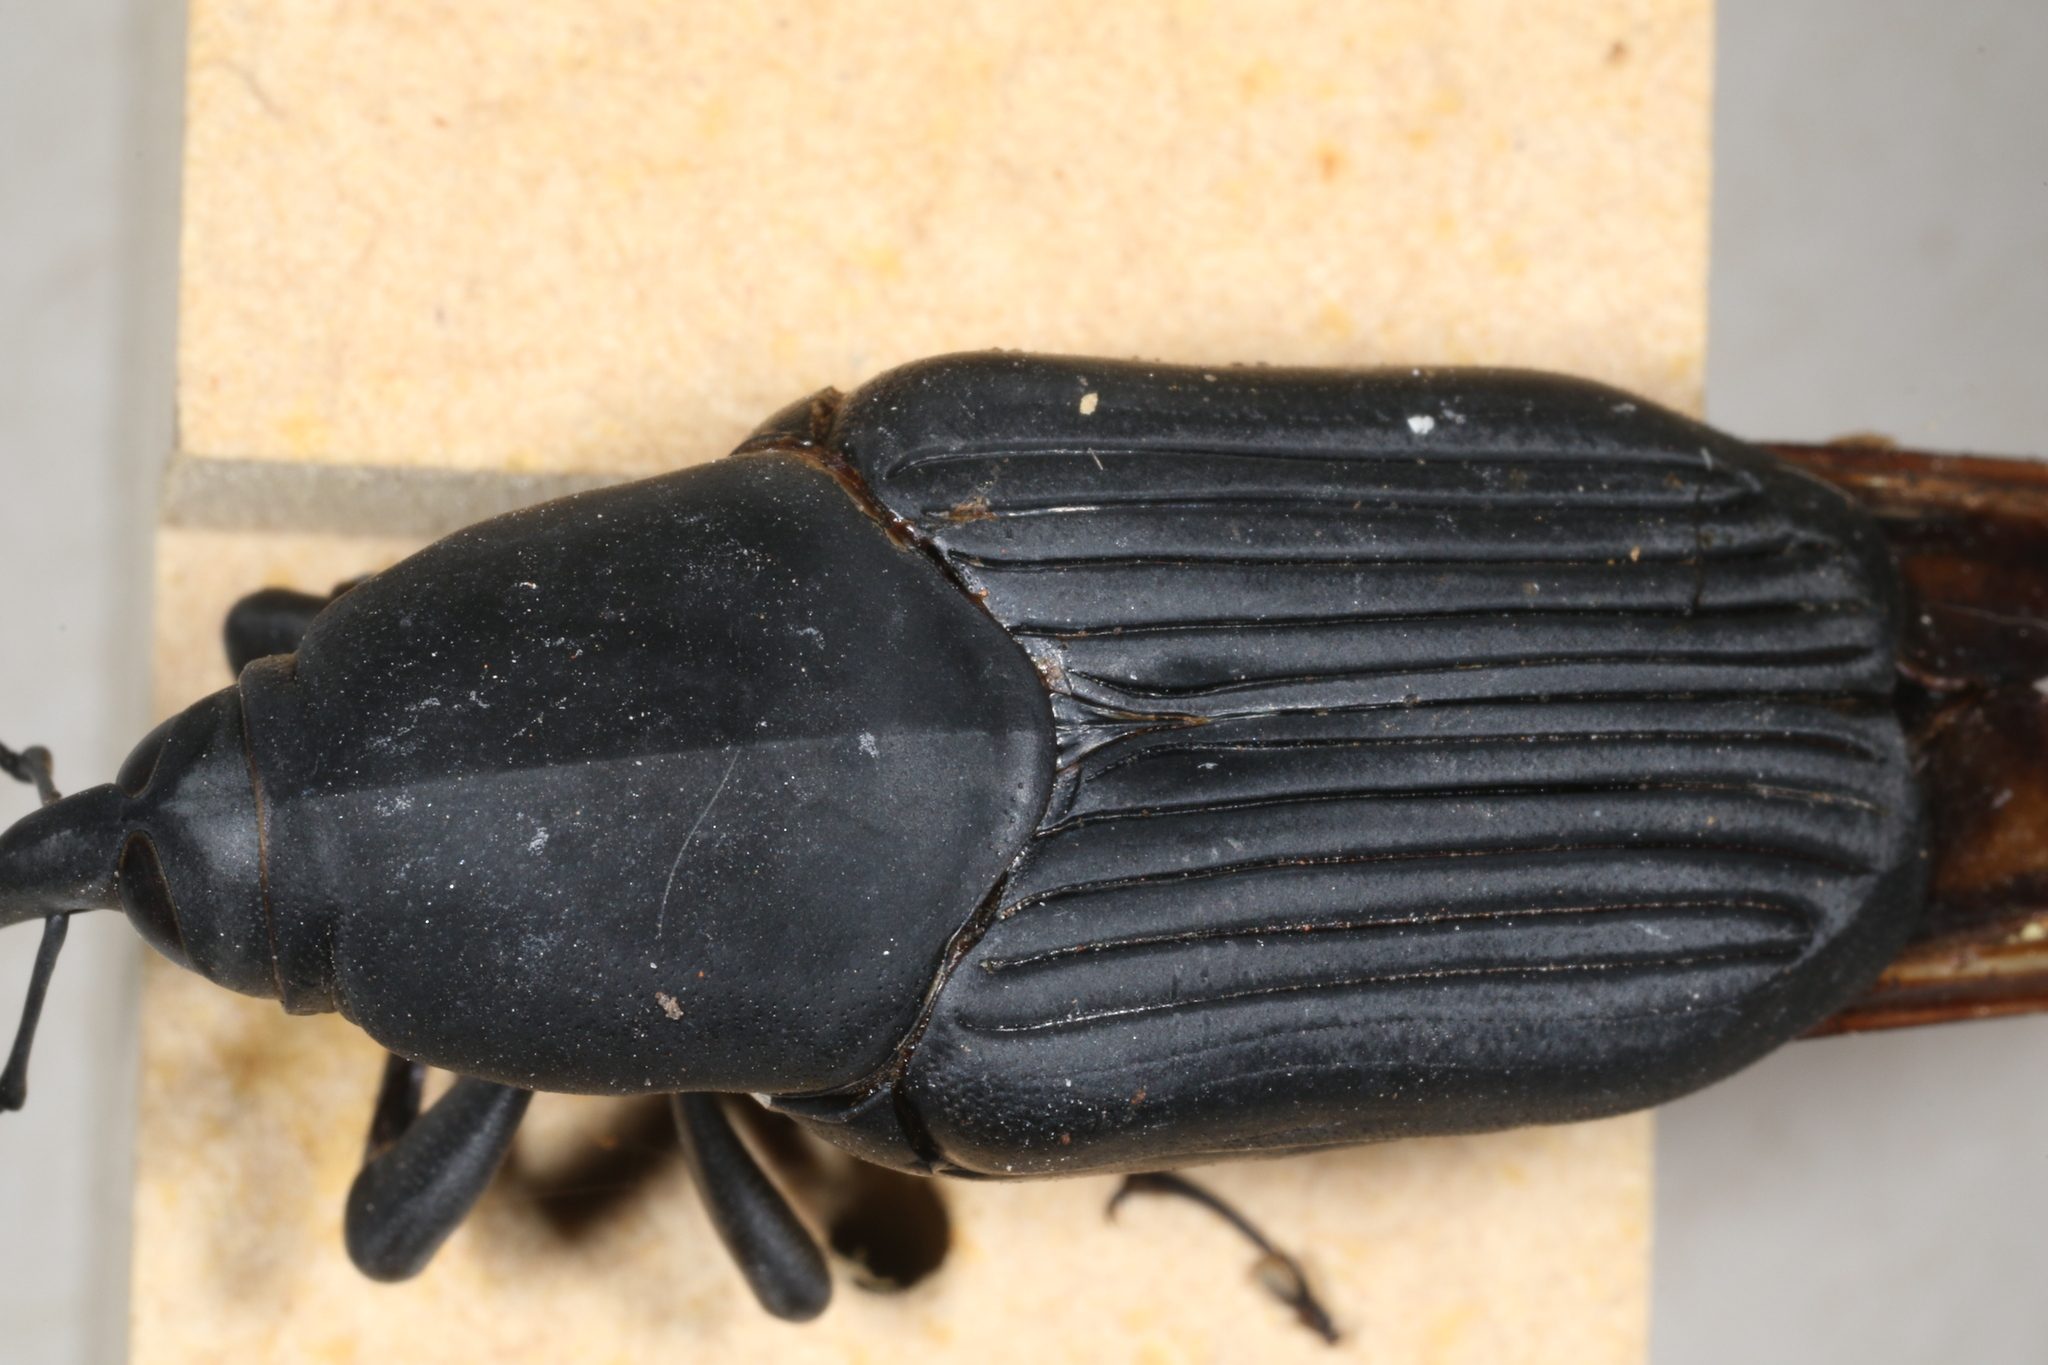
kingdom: Animalia
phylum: Arthropoda
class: Insecta
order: Coleoptera
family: Dryophthoridae
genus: Rhynchophorus
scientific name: Rhynchophorus palmarum
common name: Palm weevil
